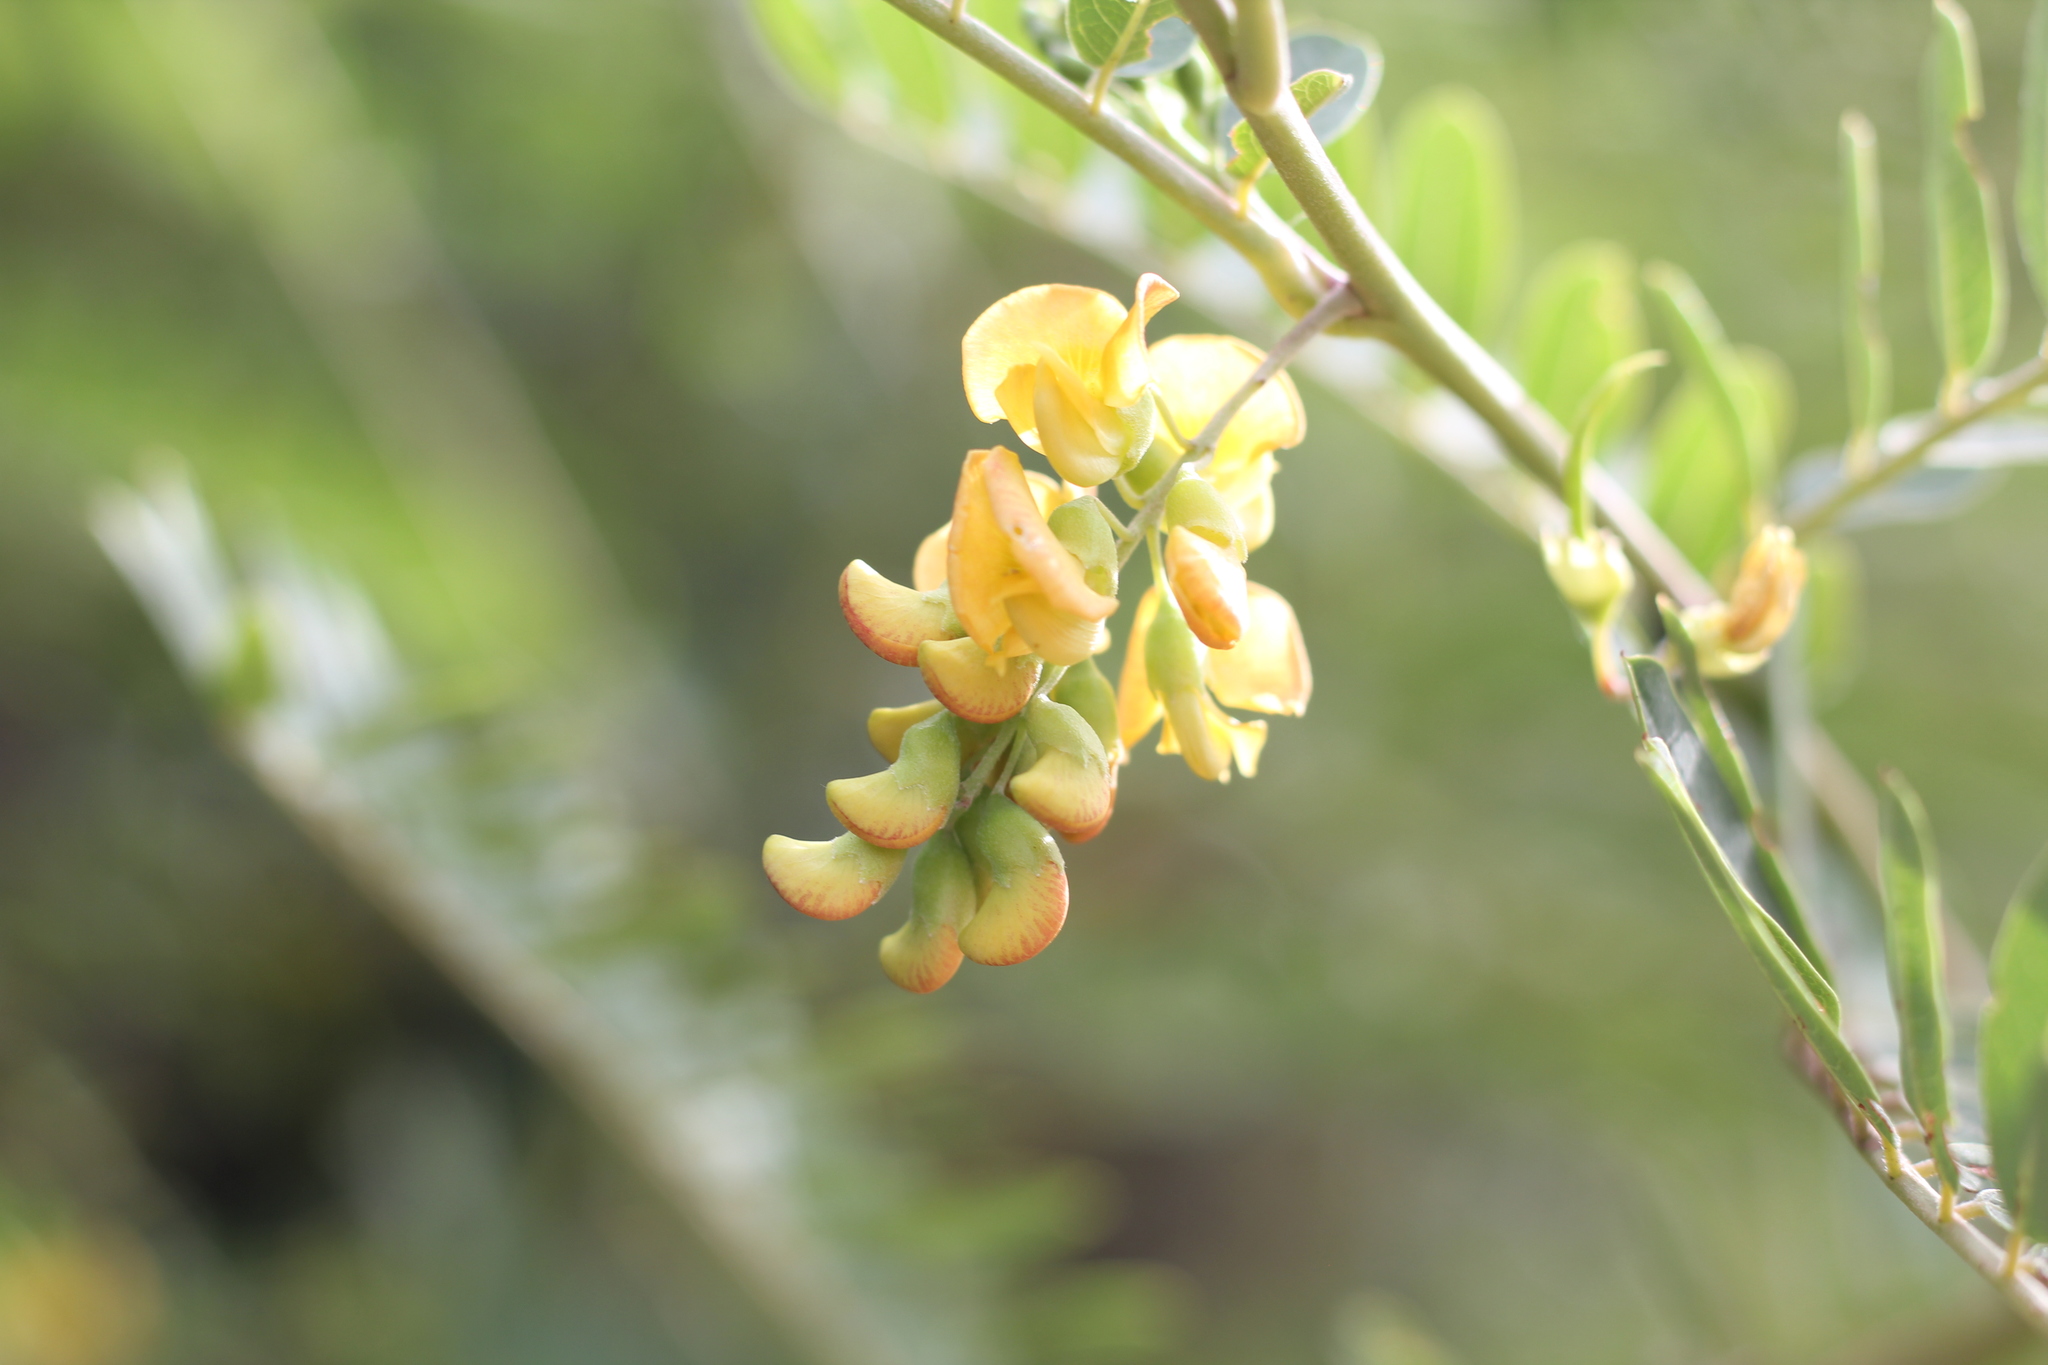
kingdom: Plantae
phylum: Tracheophyta
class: Magnoliopsida
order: Fabales
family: Fabaceae
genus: Sesbania
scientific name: Sesbania virgata
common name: Wand riverhemp
